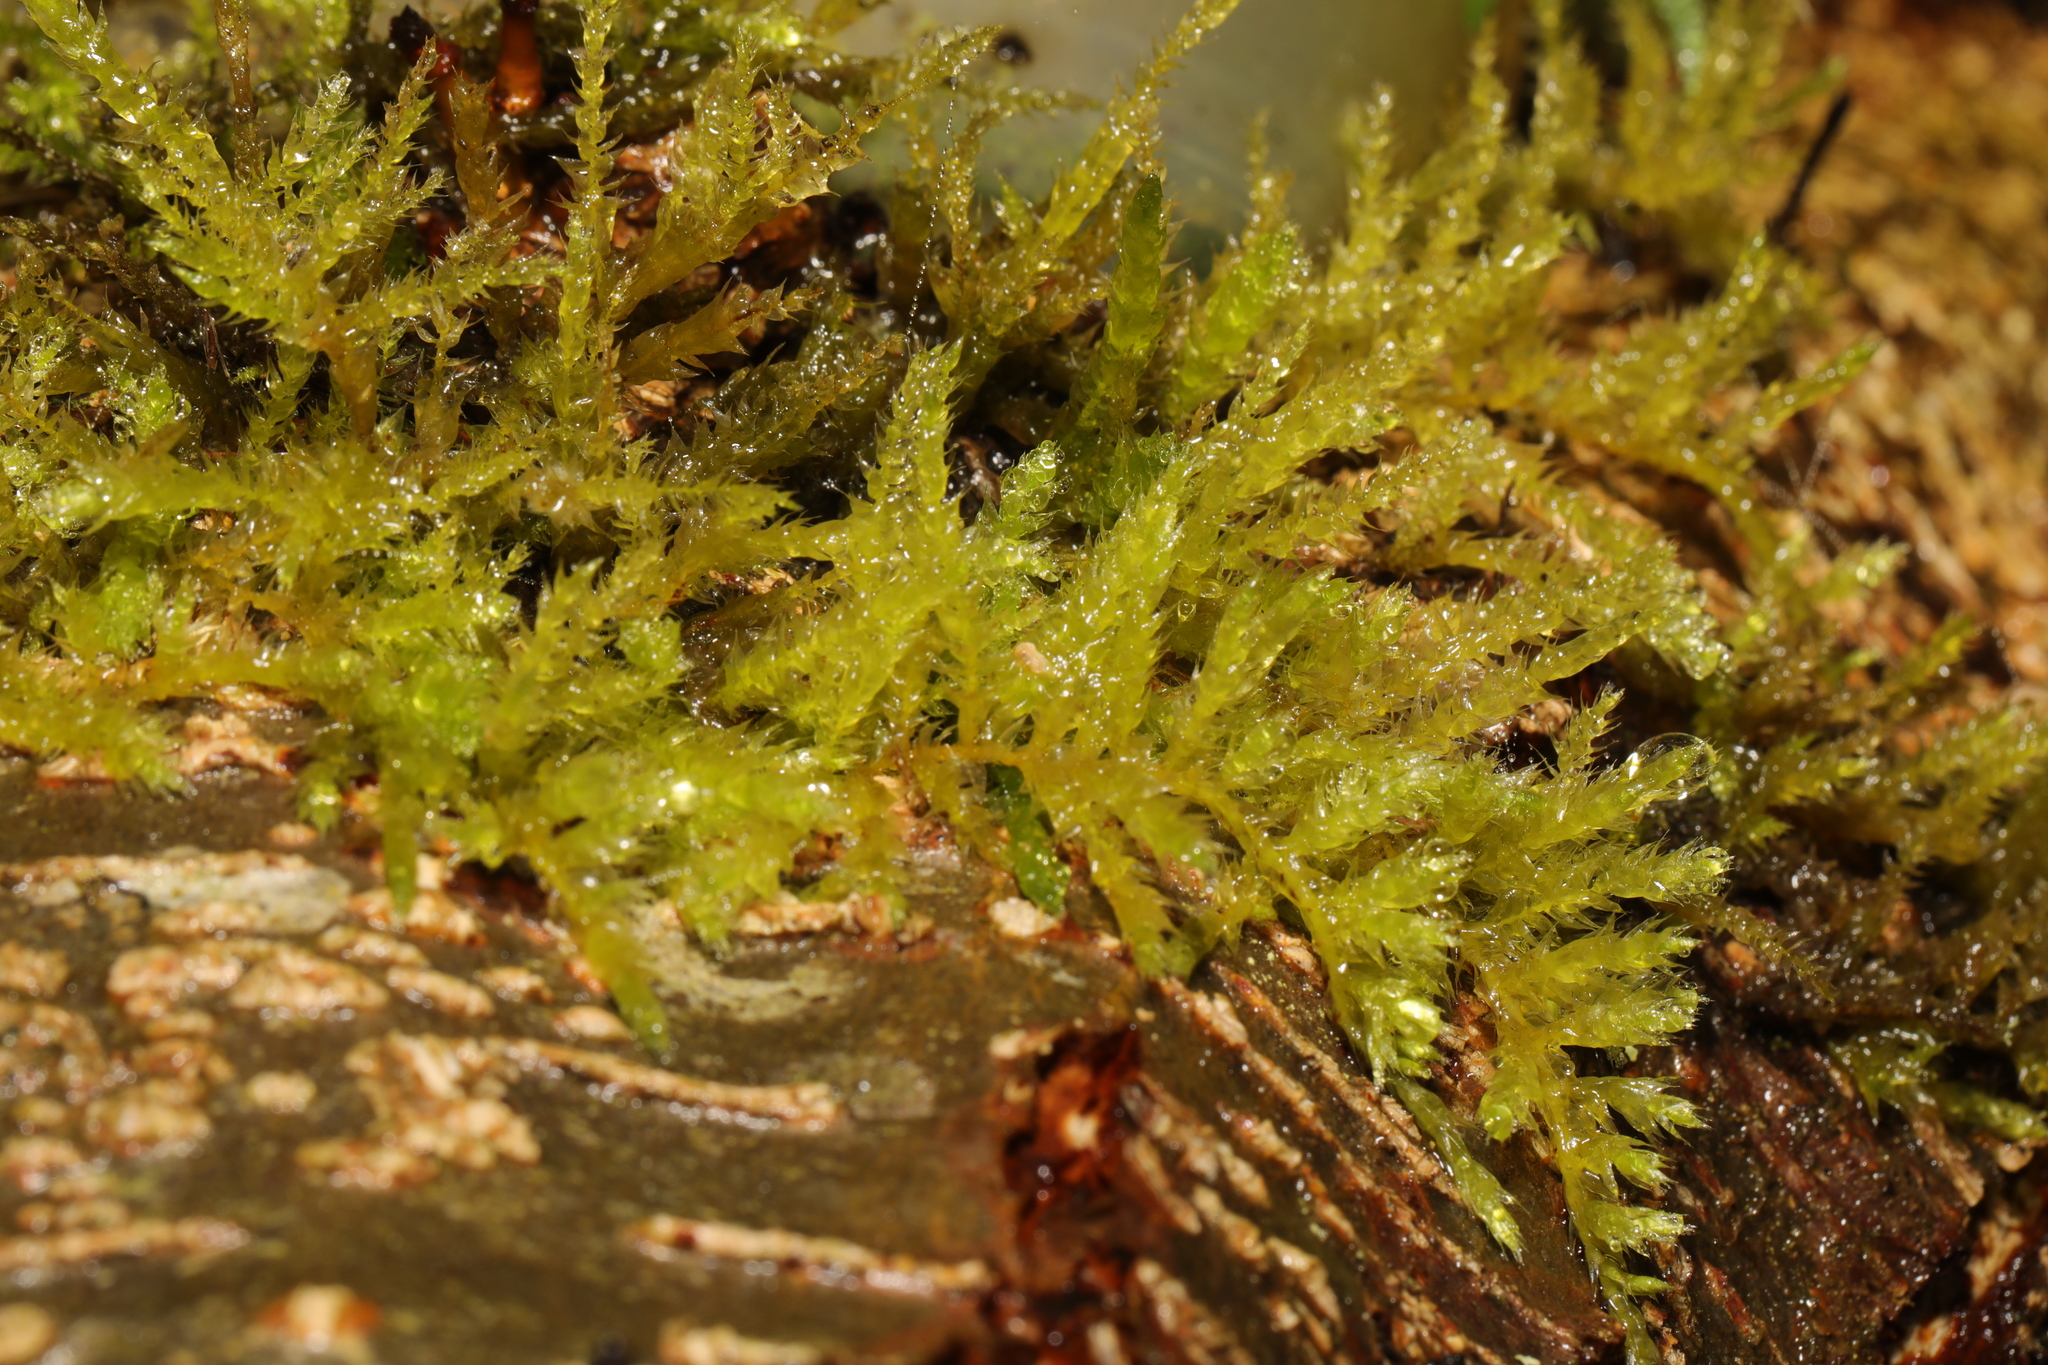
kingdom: Plantae
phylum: Bryophyta
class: Bryopsida
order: Hypnales
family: Brachytheciaceae
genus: Kindbergia
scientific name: Kindbergia praelonga
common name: Slender beaked moss
